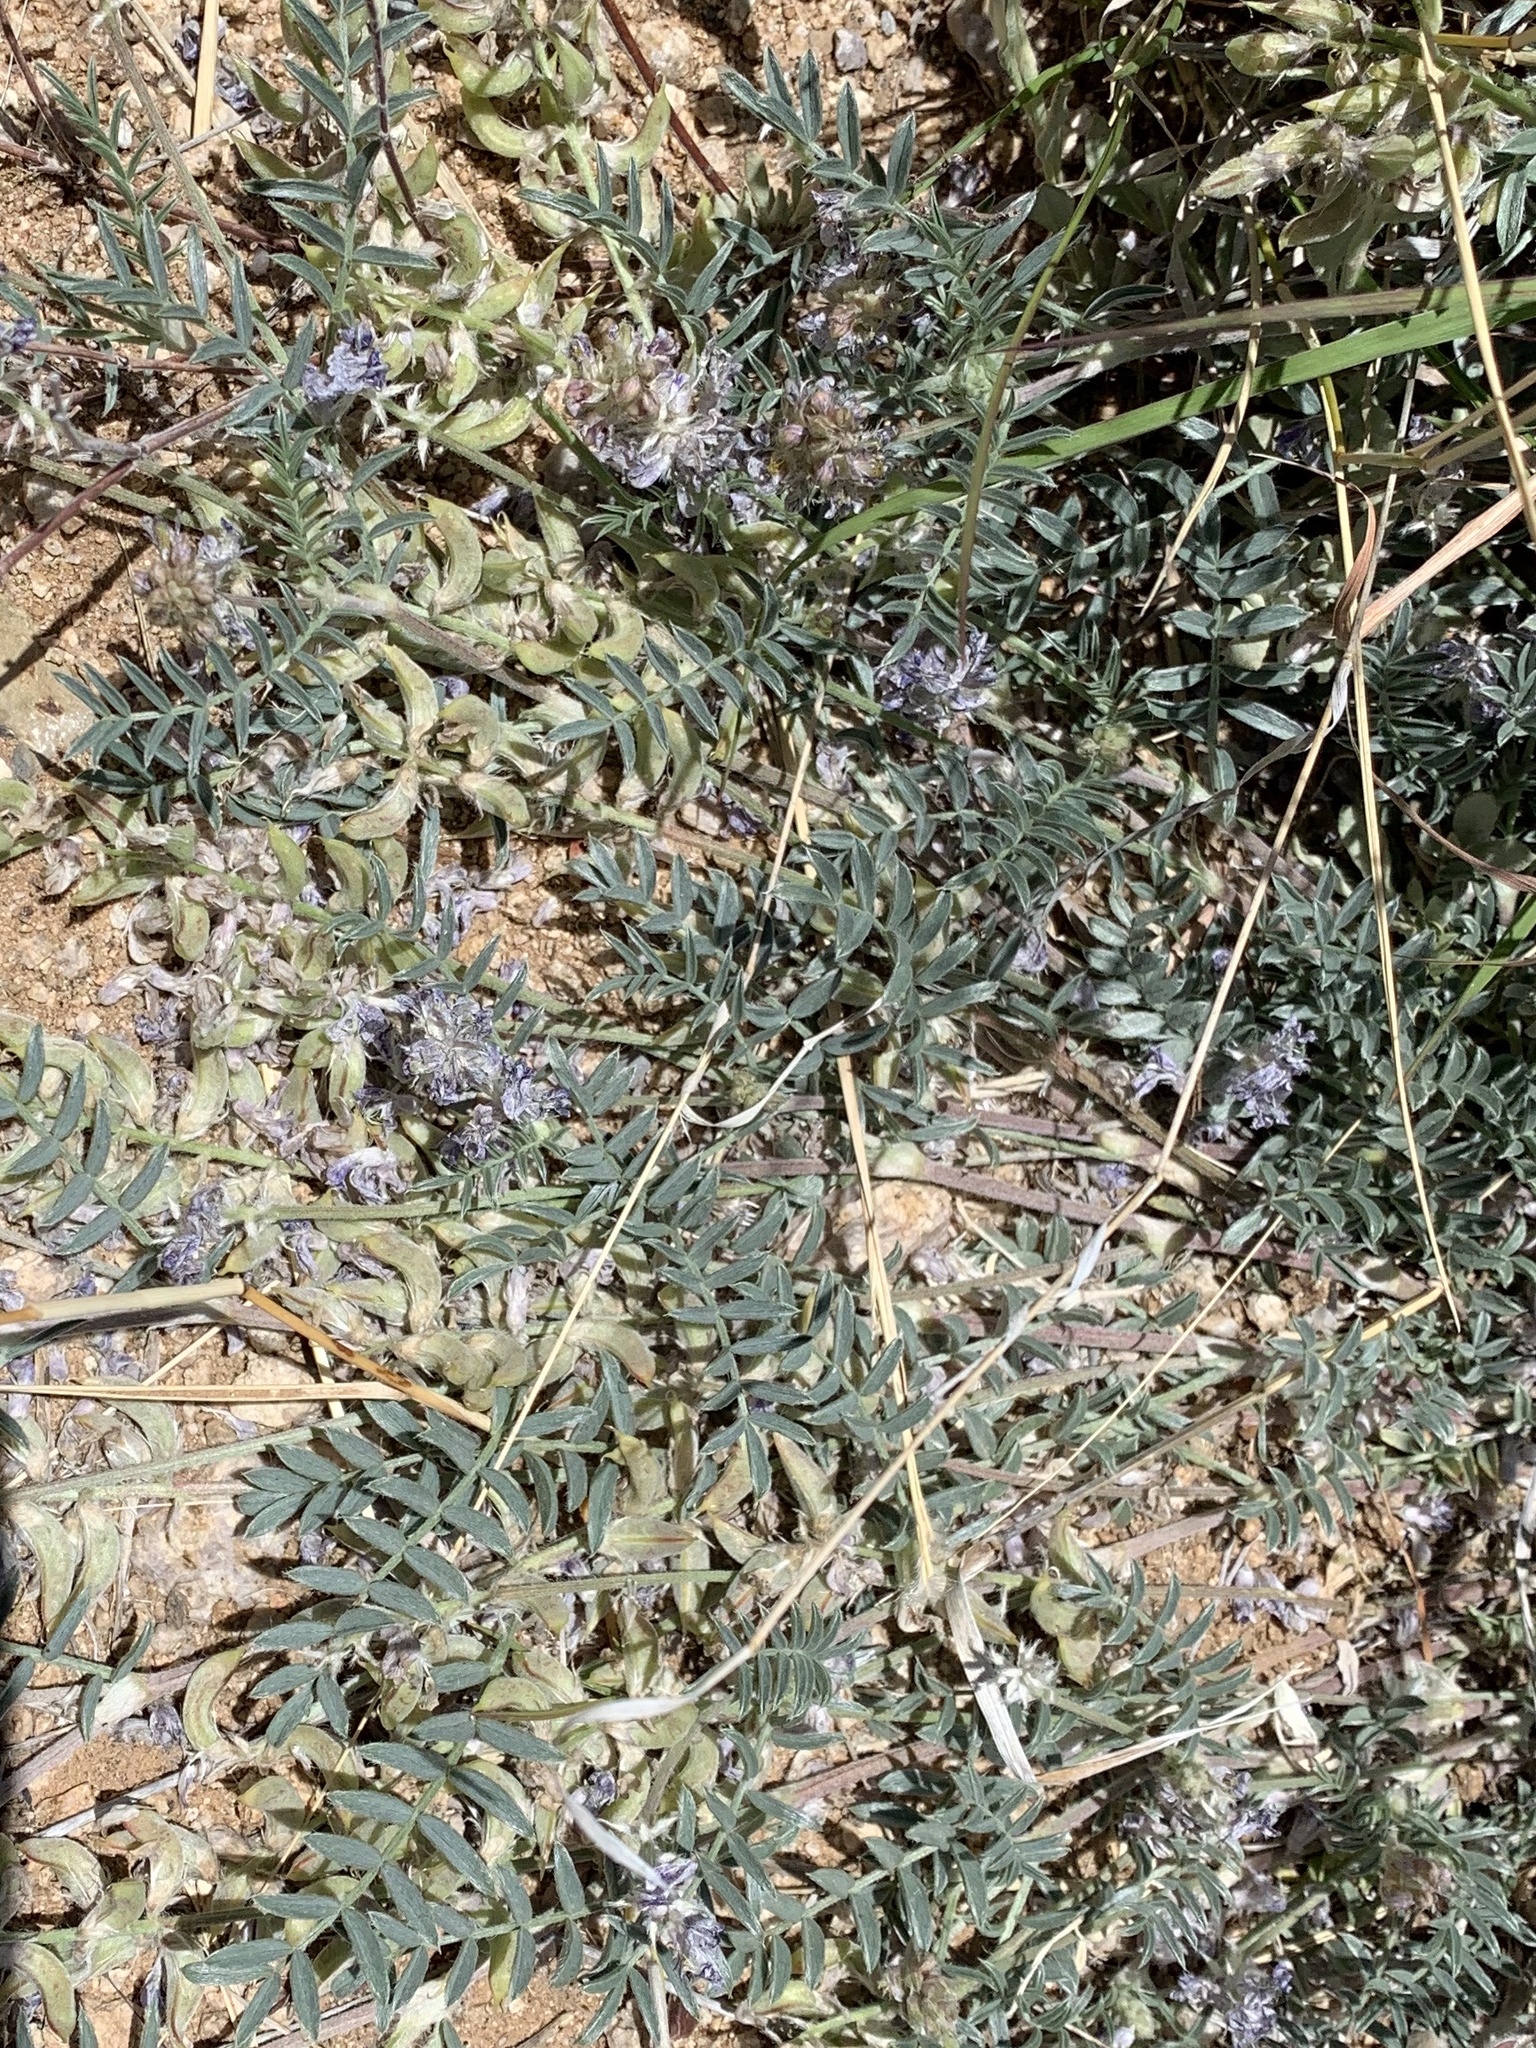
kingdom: Plantae
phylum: Tracheophyta
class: Magnoliopsida
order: Fabales
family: Fabaceae
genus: Astragalus
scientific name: Astragalus emoryanus
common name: Emory's milk-vetch
